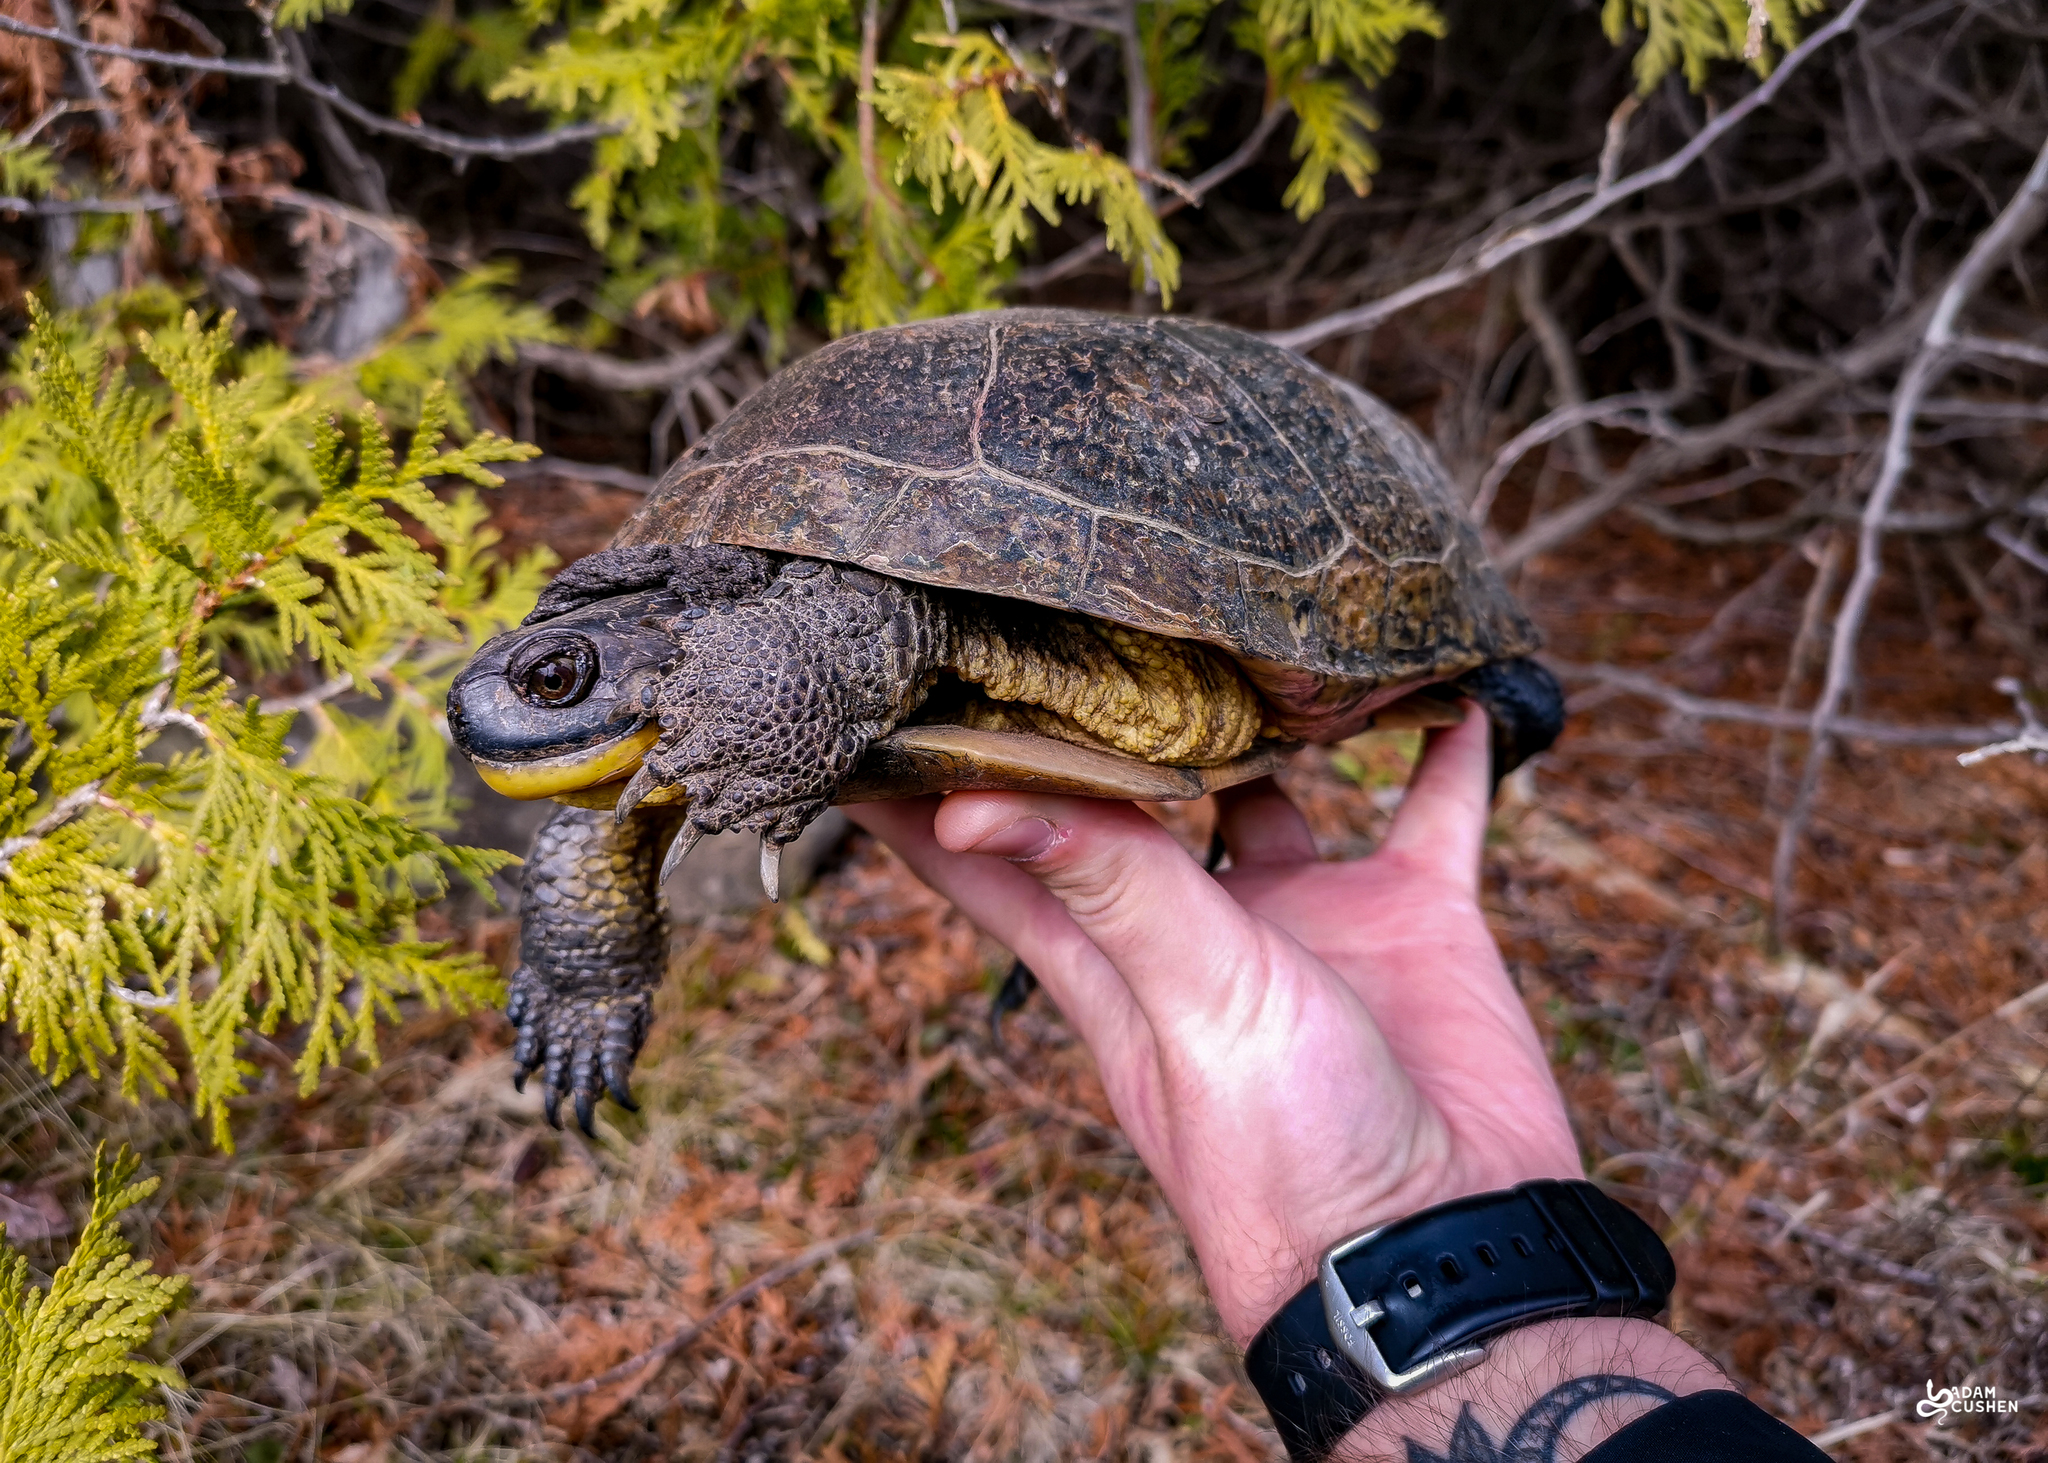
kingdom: Animalia
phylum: Chordata
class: Testudines
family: Emydidae
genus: Emys
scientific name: Emys blandingii
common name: Blanding's turtle
